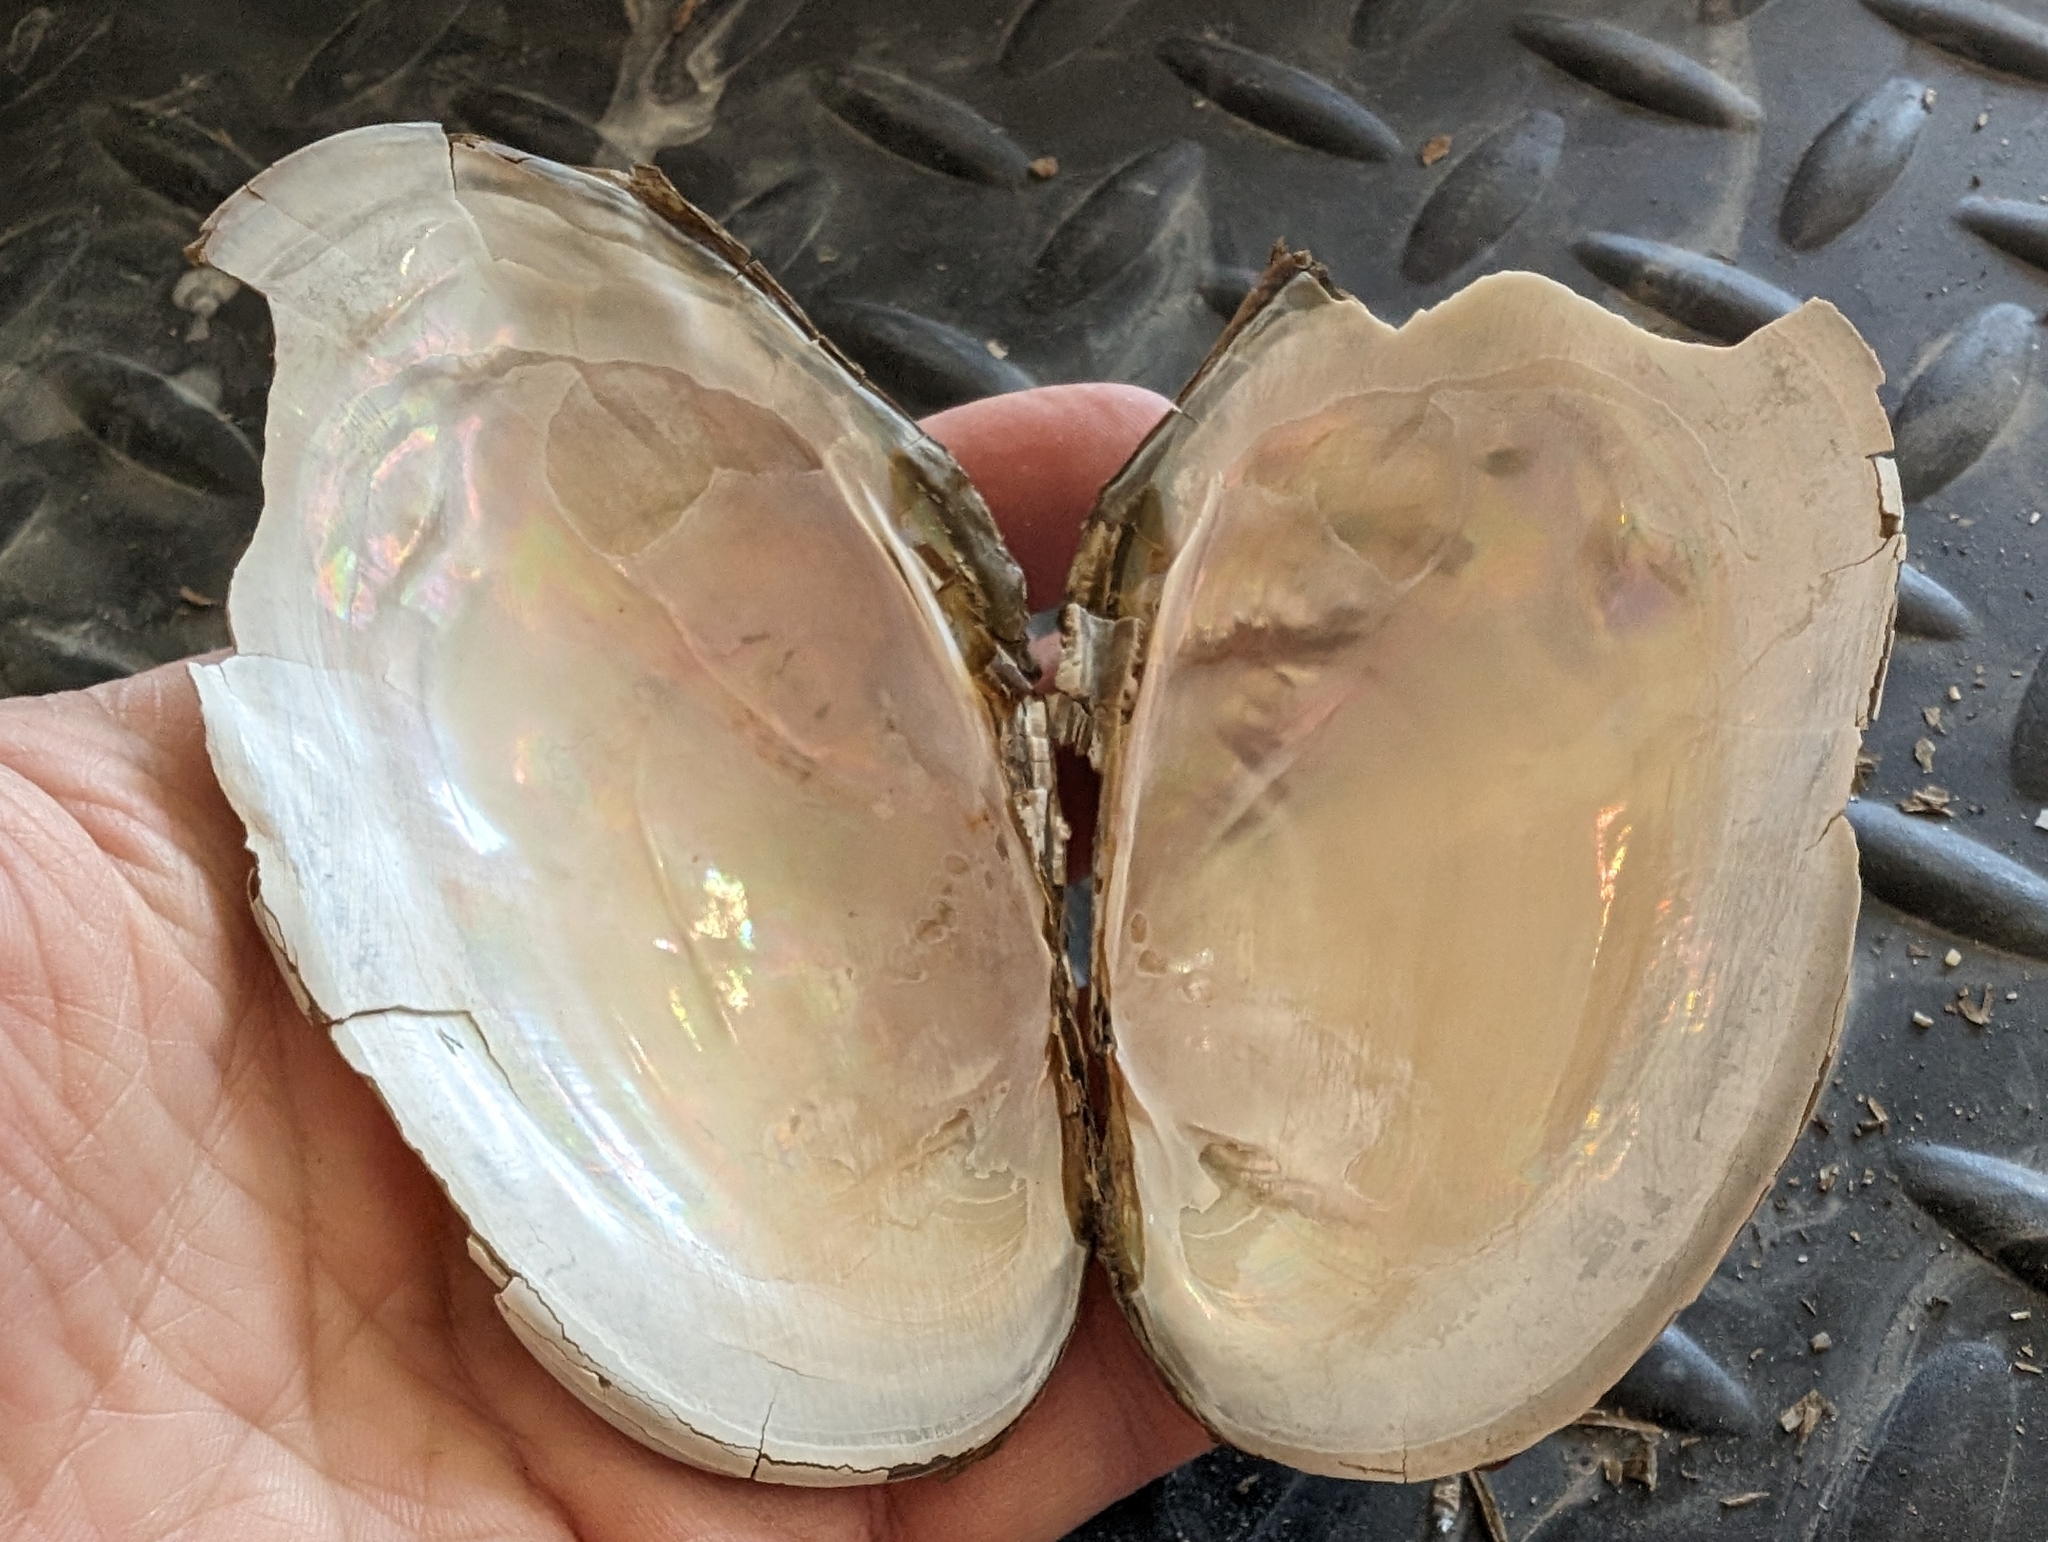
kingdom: Animalia
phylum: Mollusca
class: Bivalvia
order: Unionida
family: Unionidae
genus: Potamilus
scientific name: Potamilus fragilis
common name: Fragile papershell
